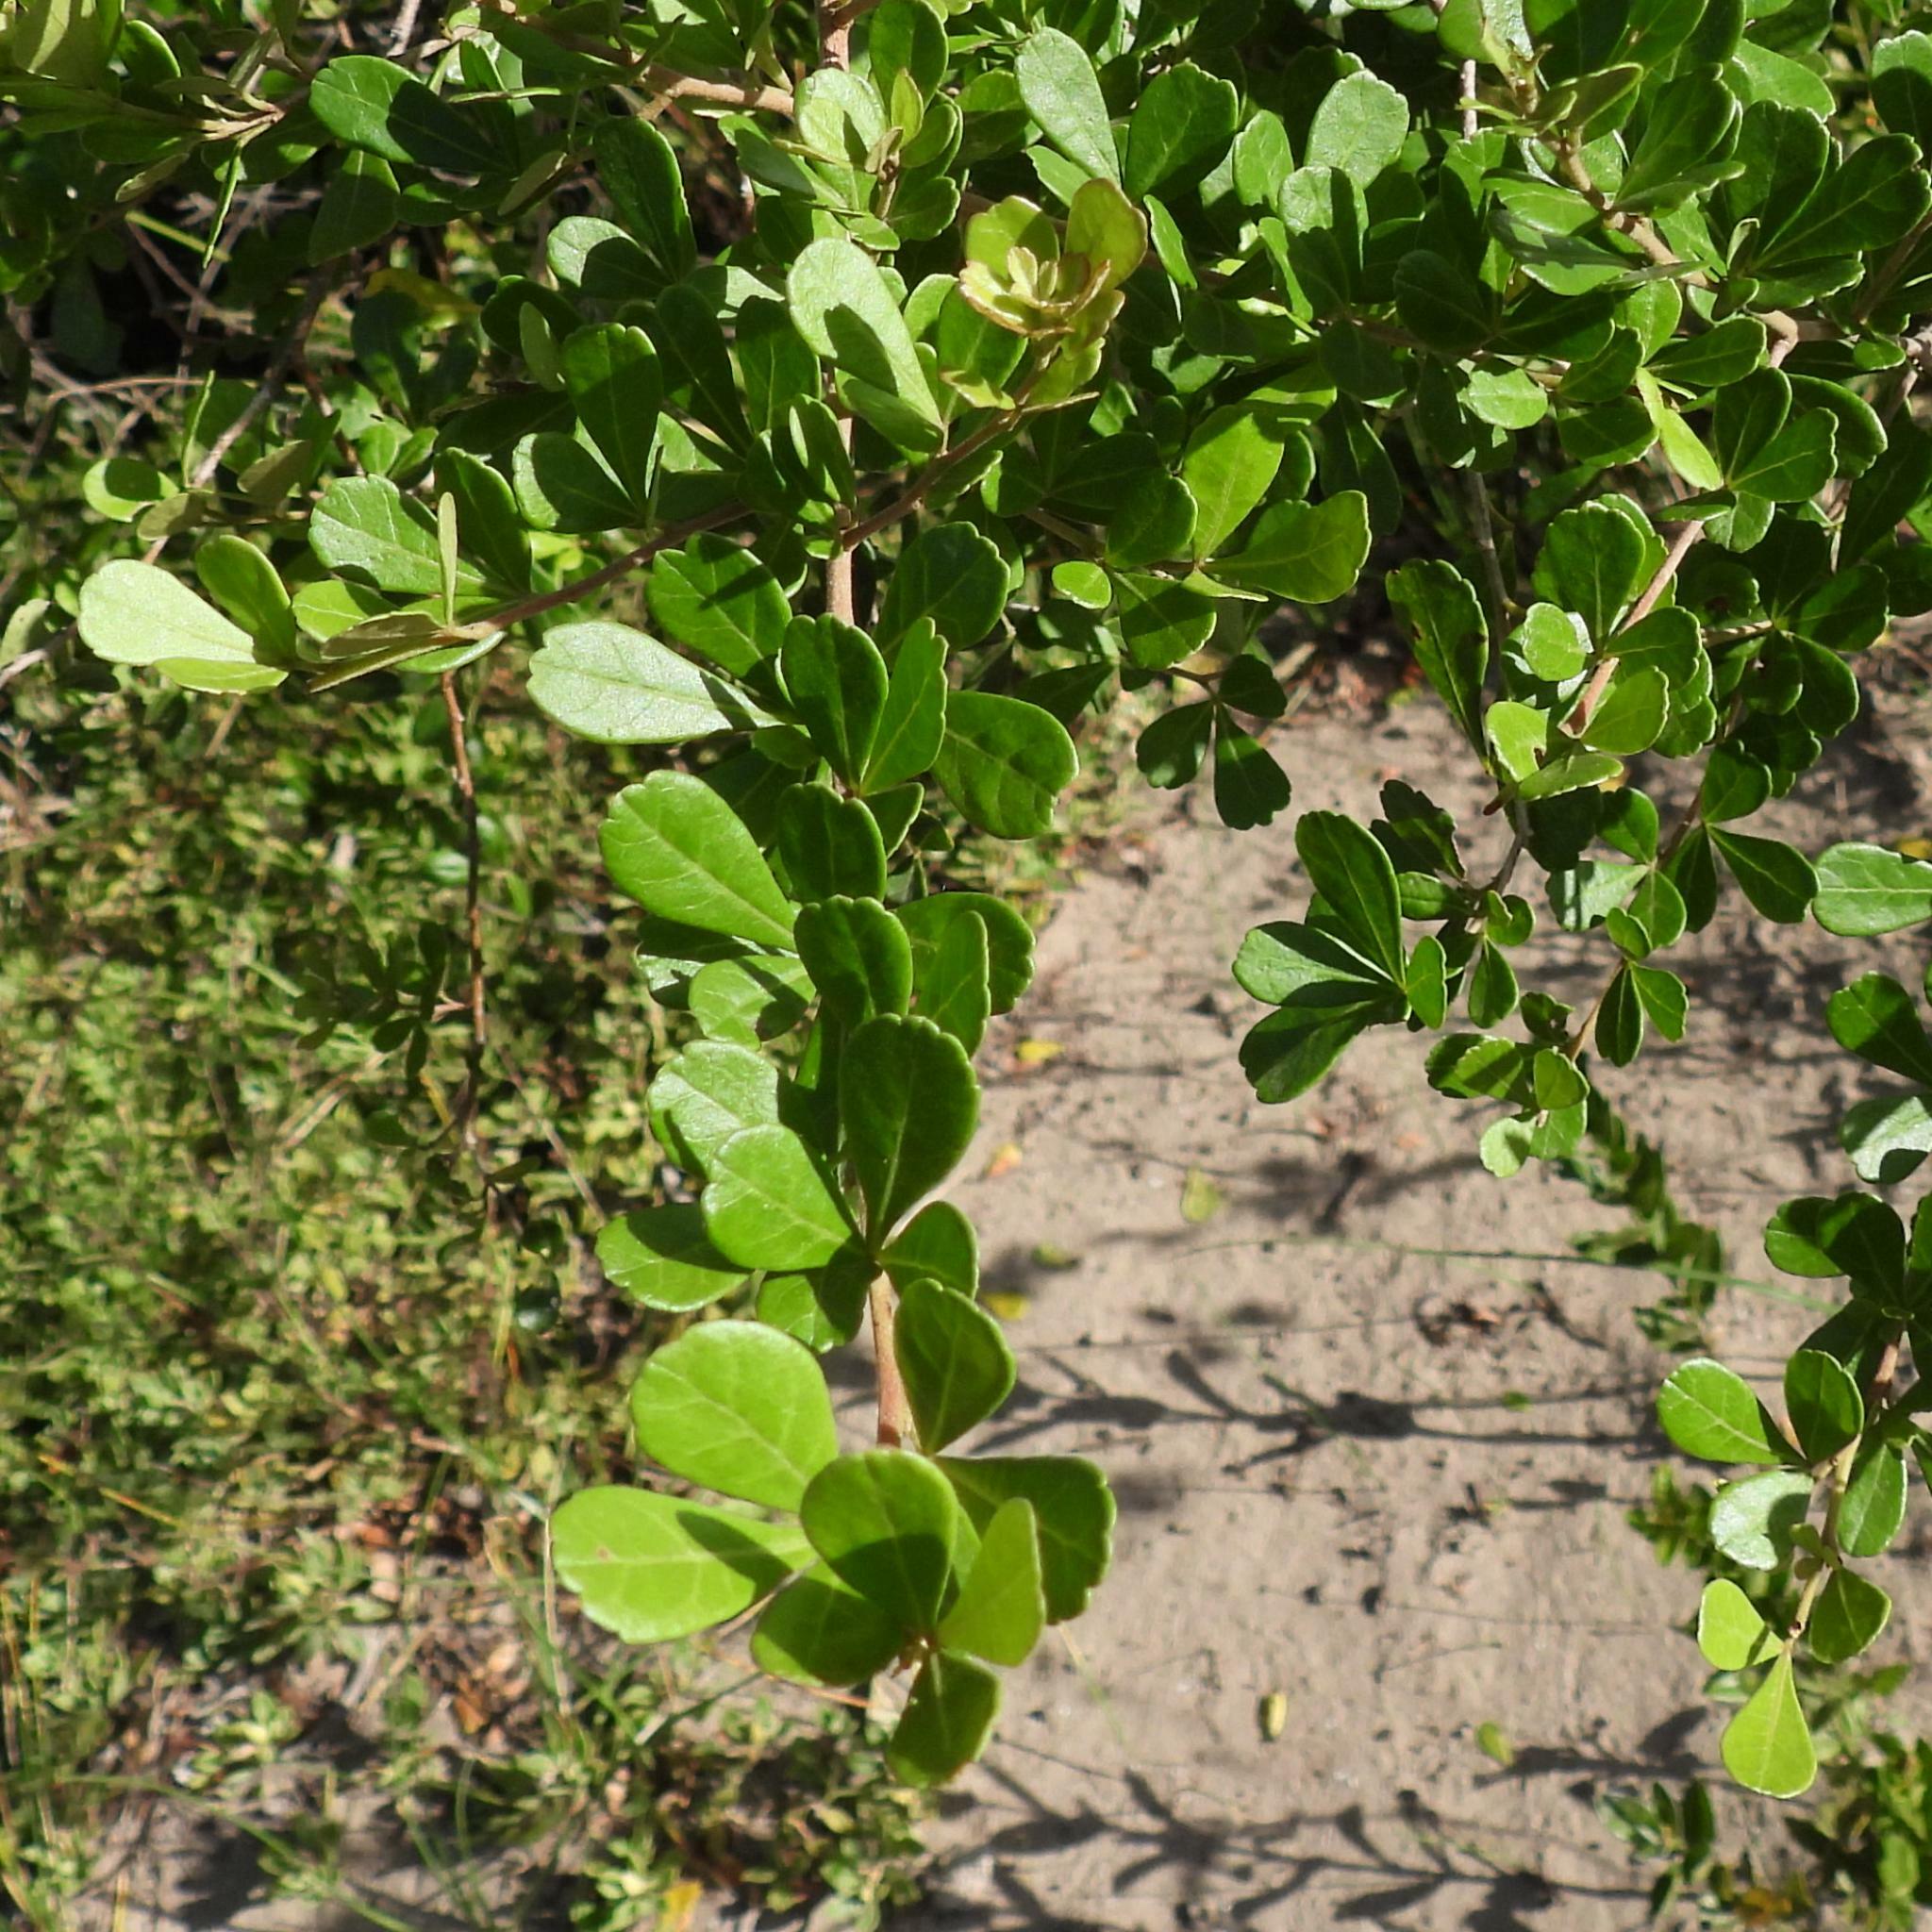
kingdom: Plantae
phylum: Tracheophyta
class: Magnoliopsida
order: Sapindales
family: Anacardiaceae
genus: Searsia
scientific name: Searsia crenata
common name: Crowberry
